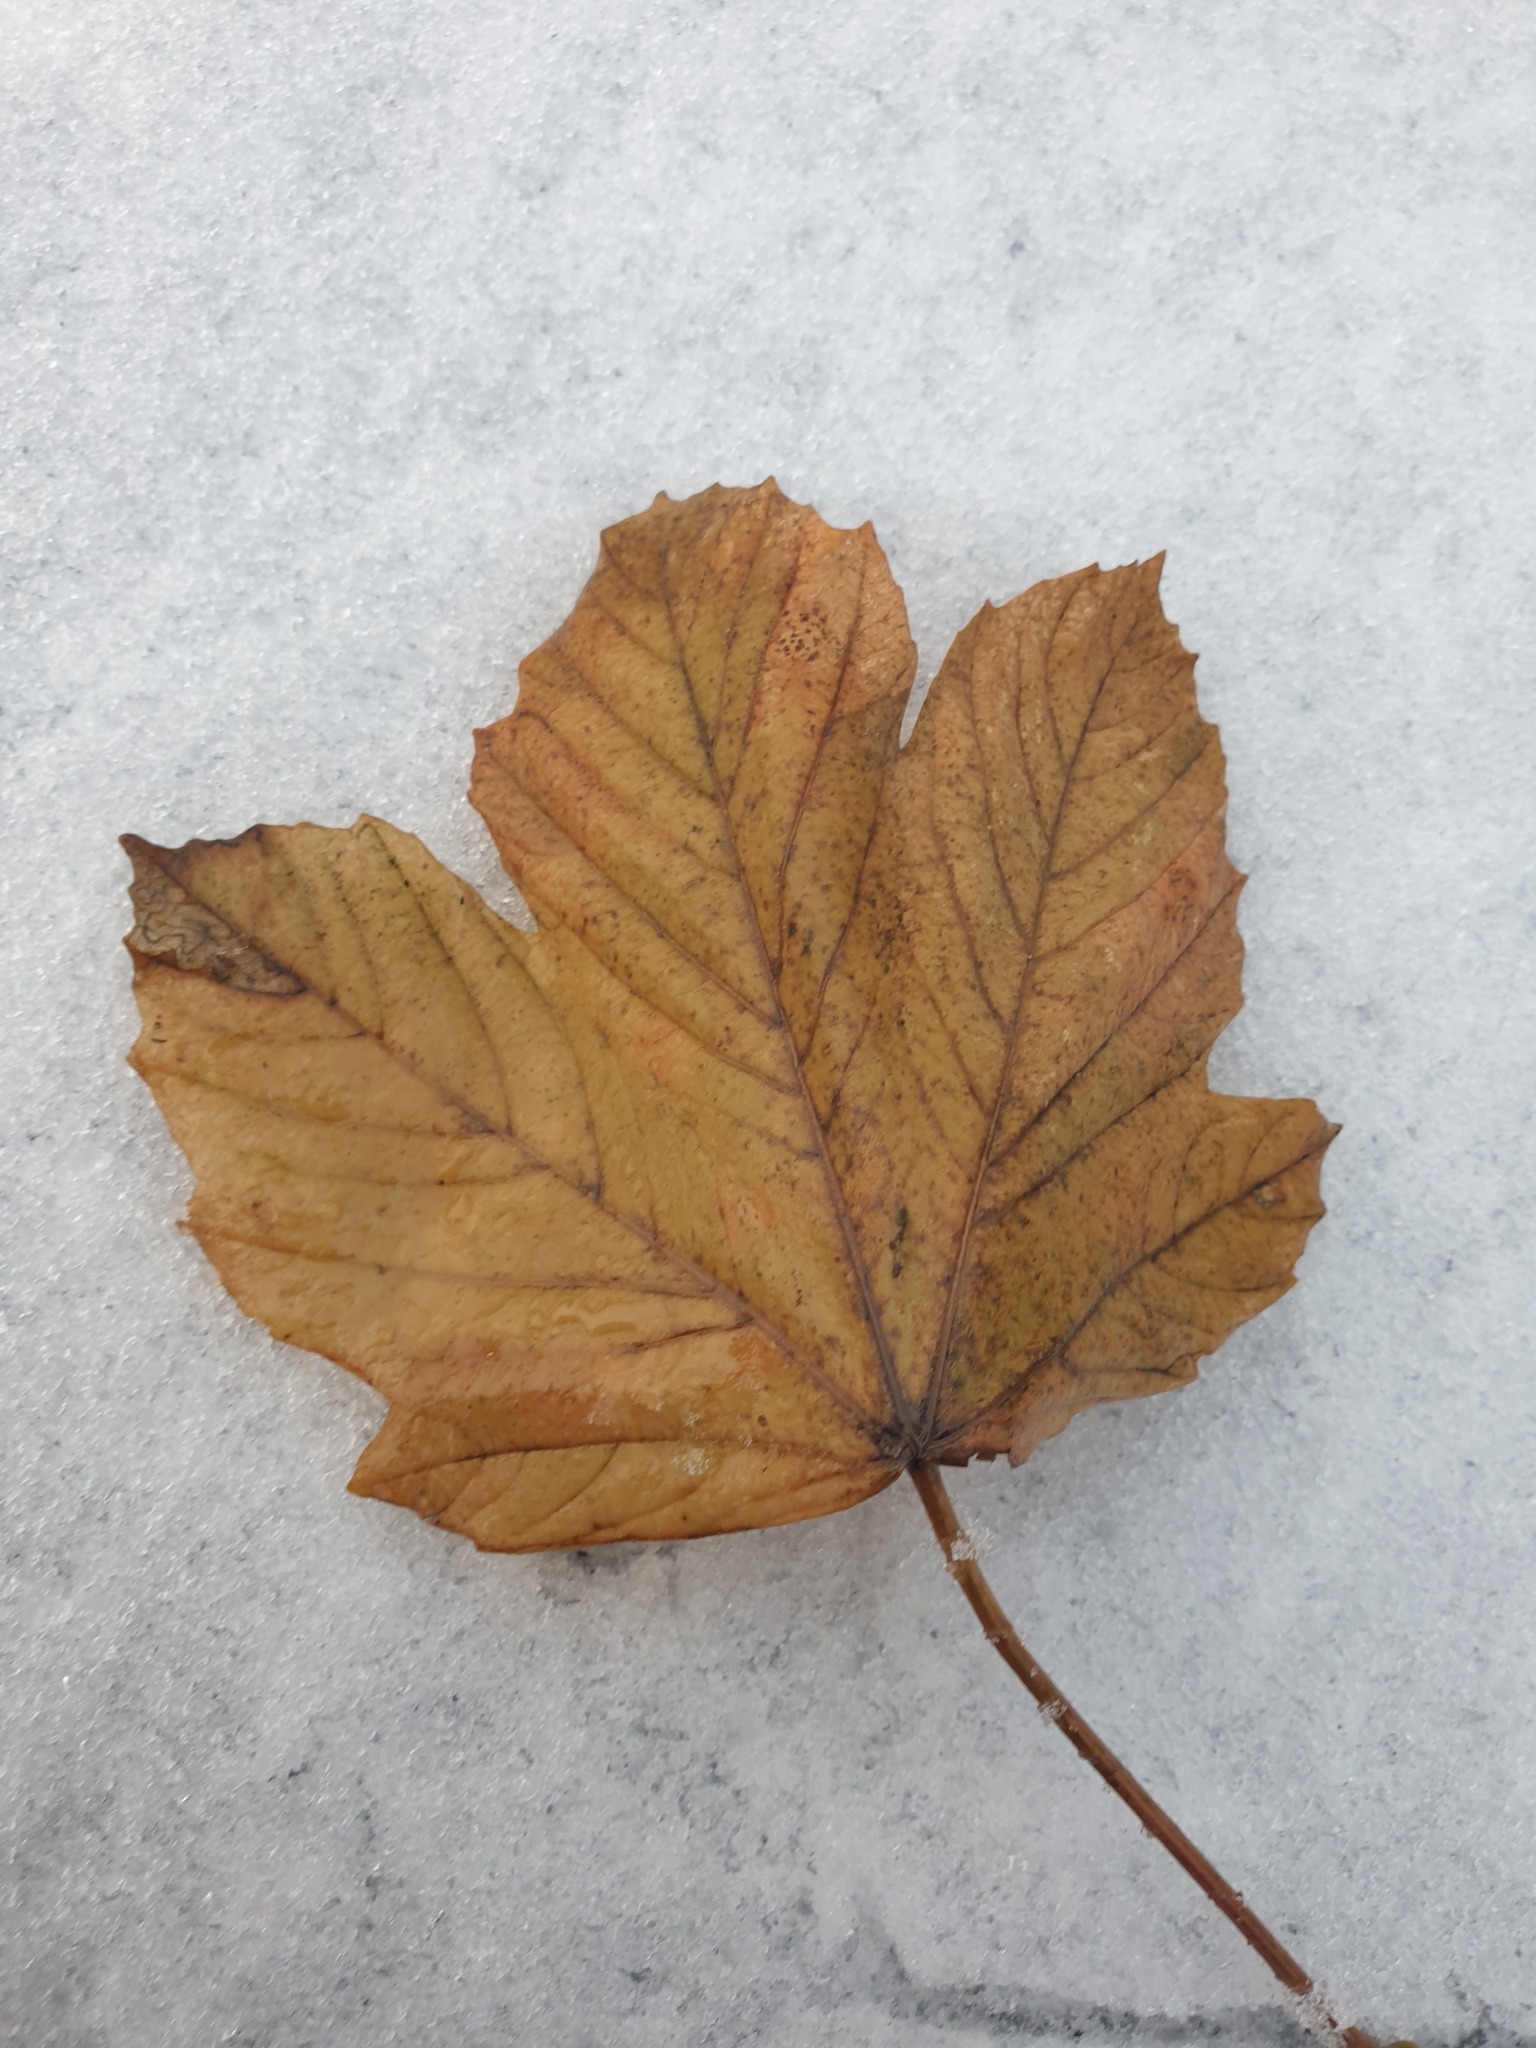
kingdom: Plantae
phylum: Tracheophyta
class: Magnoliopsida
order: Sapindales
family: Sapindaceae
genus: Acer
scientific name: Acer pseudoplatanus
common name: Sycamore
